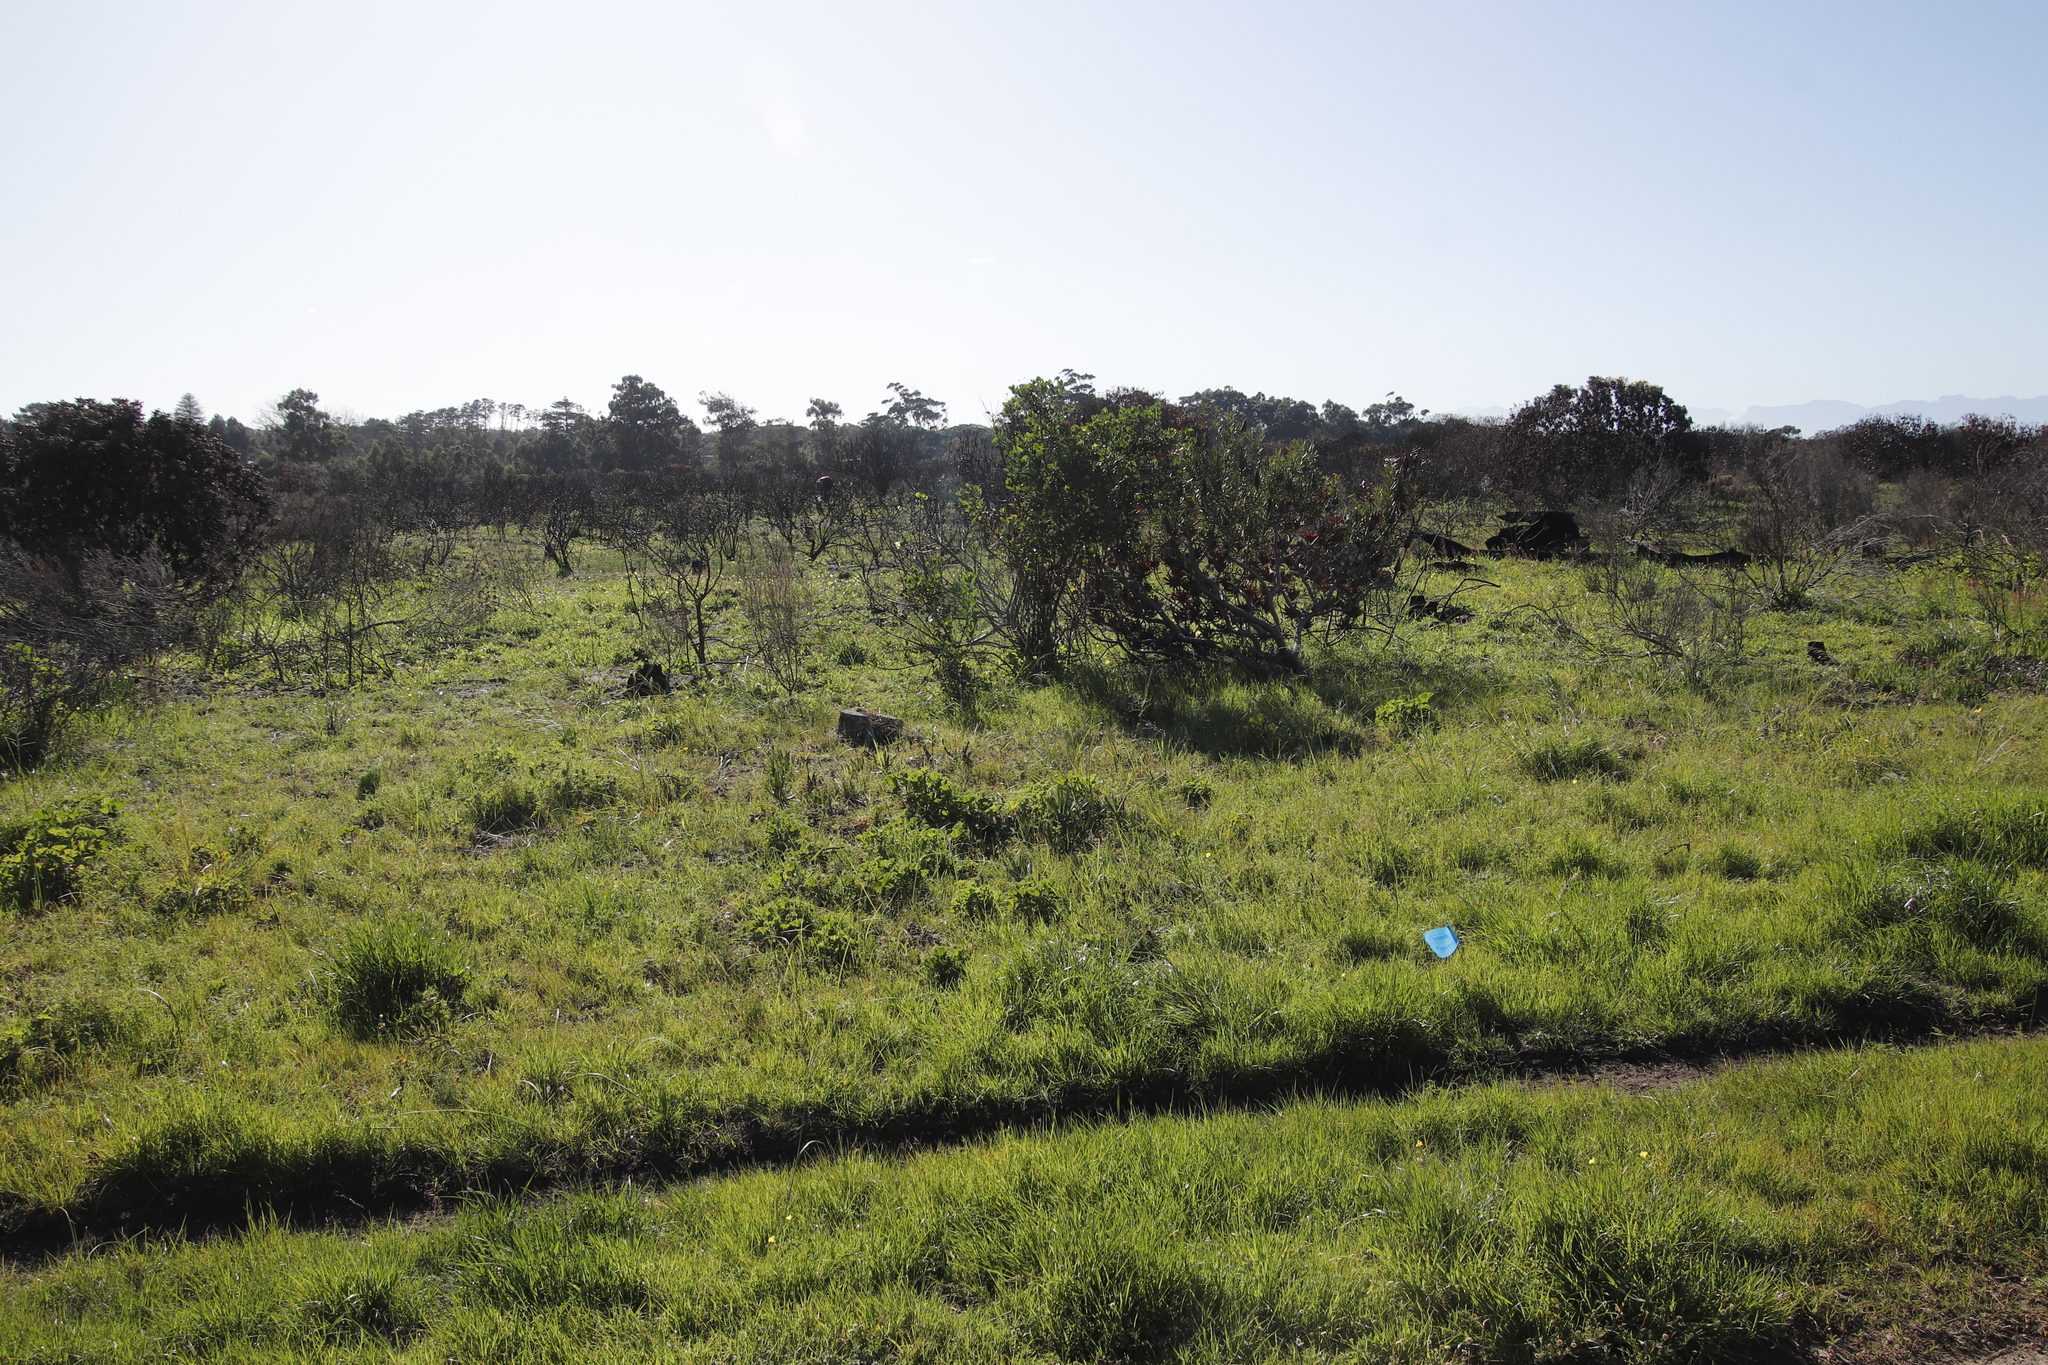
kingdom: Plantae
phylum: Tracheophyta
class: Magnoliopsida
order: Proteales
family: Proteaceae
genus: Protea
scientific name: Protea repens
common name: Sugarbush
